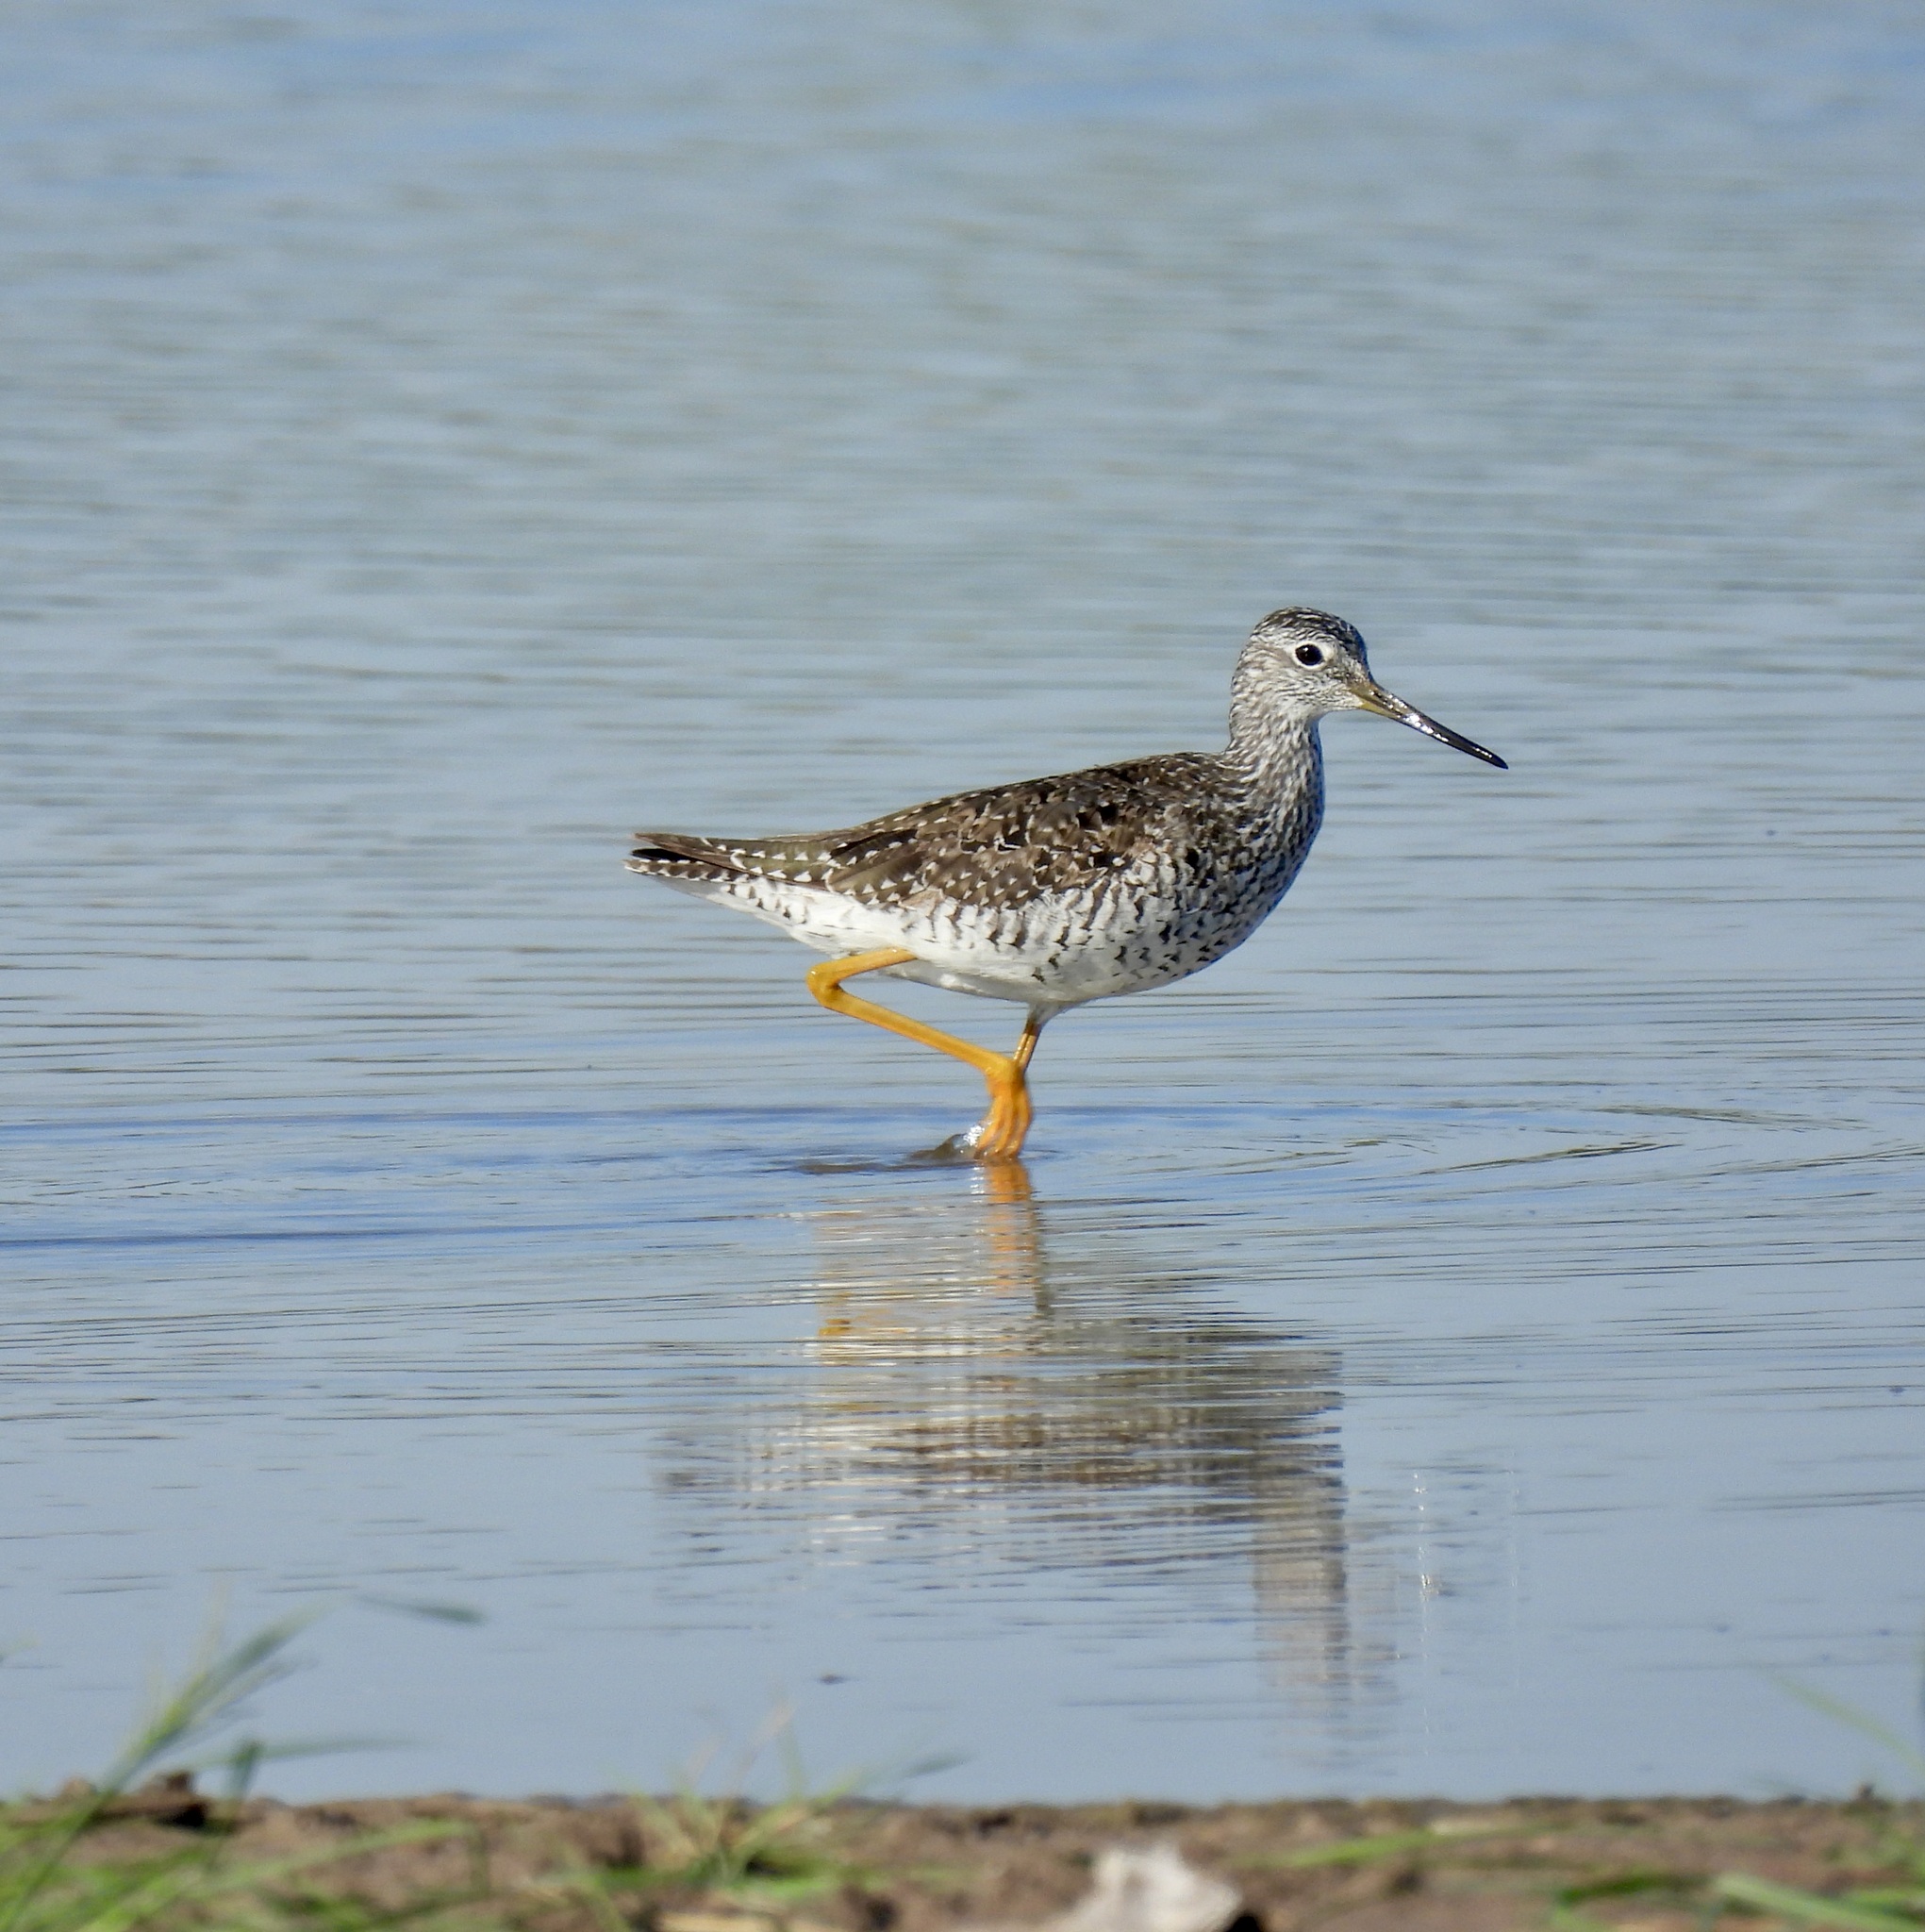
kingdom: Animalia
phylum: Chordata
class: Aves
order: Charadriiformes
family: Scolopacidae
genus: Tringa
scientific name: Tringa melanoleuca
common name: Greater yellowlegs
